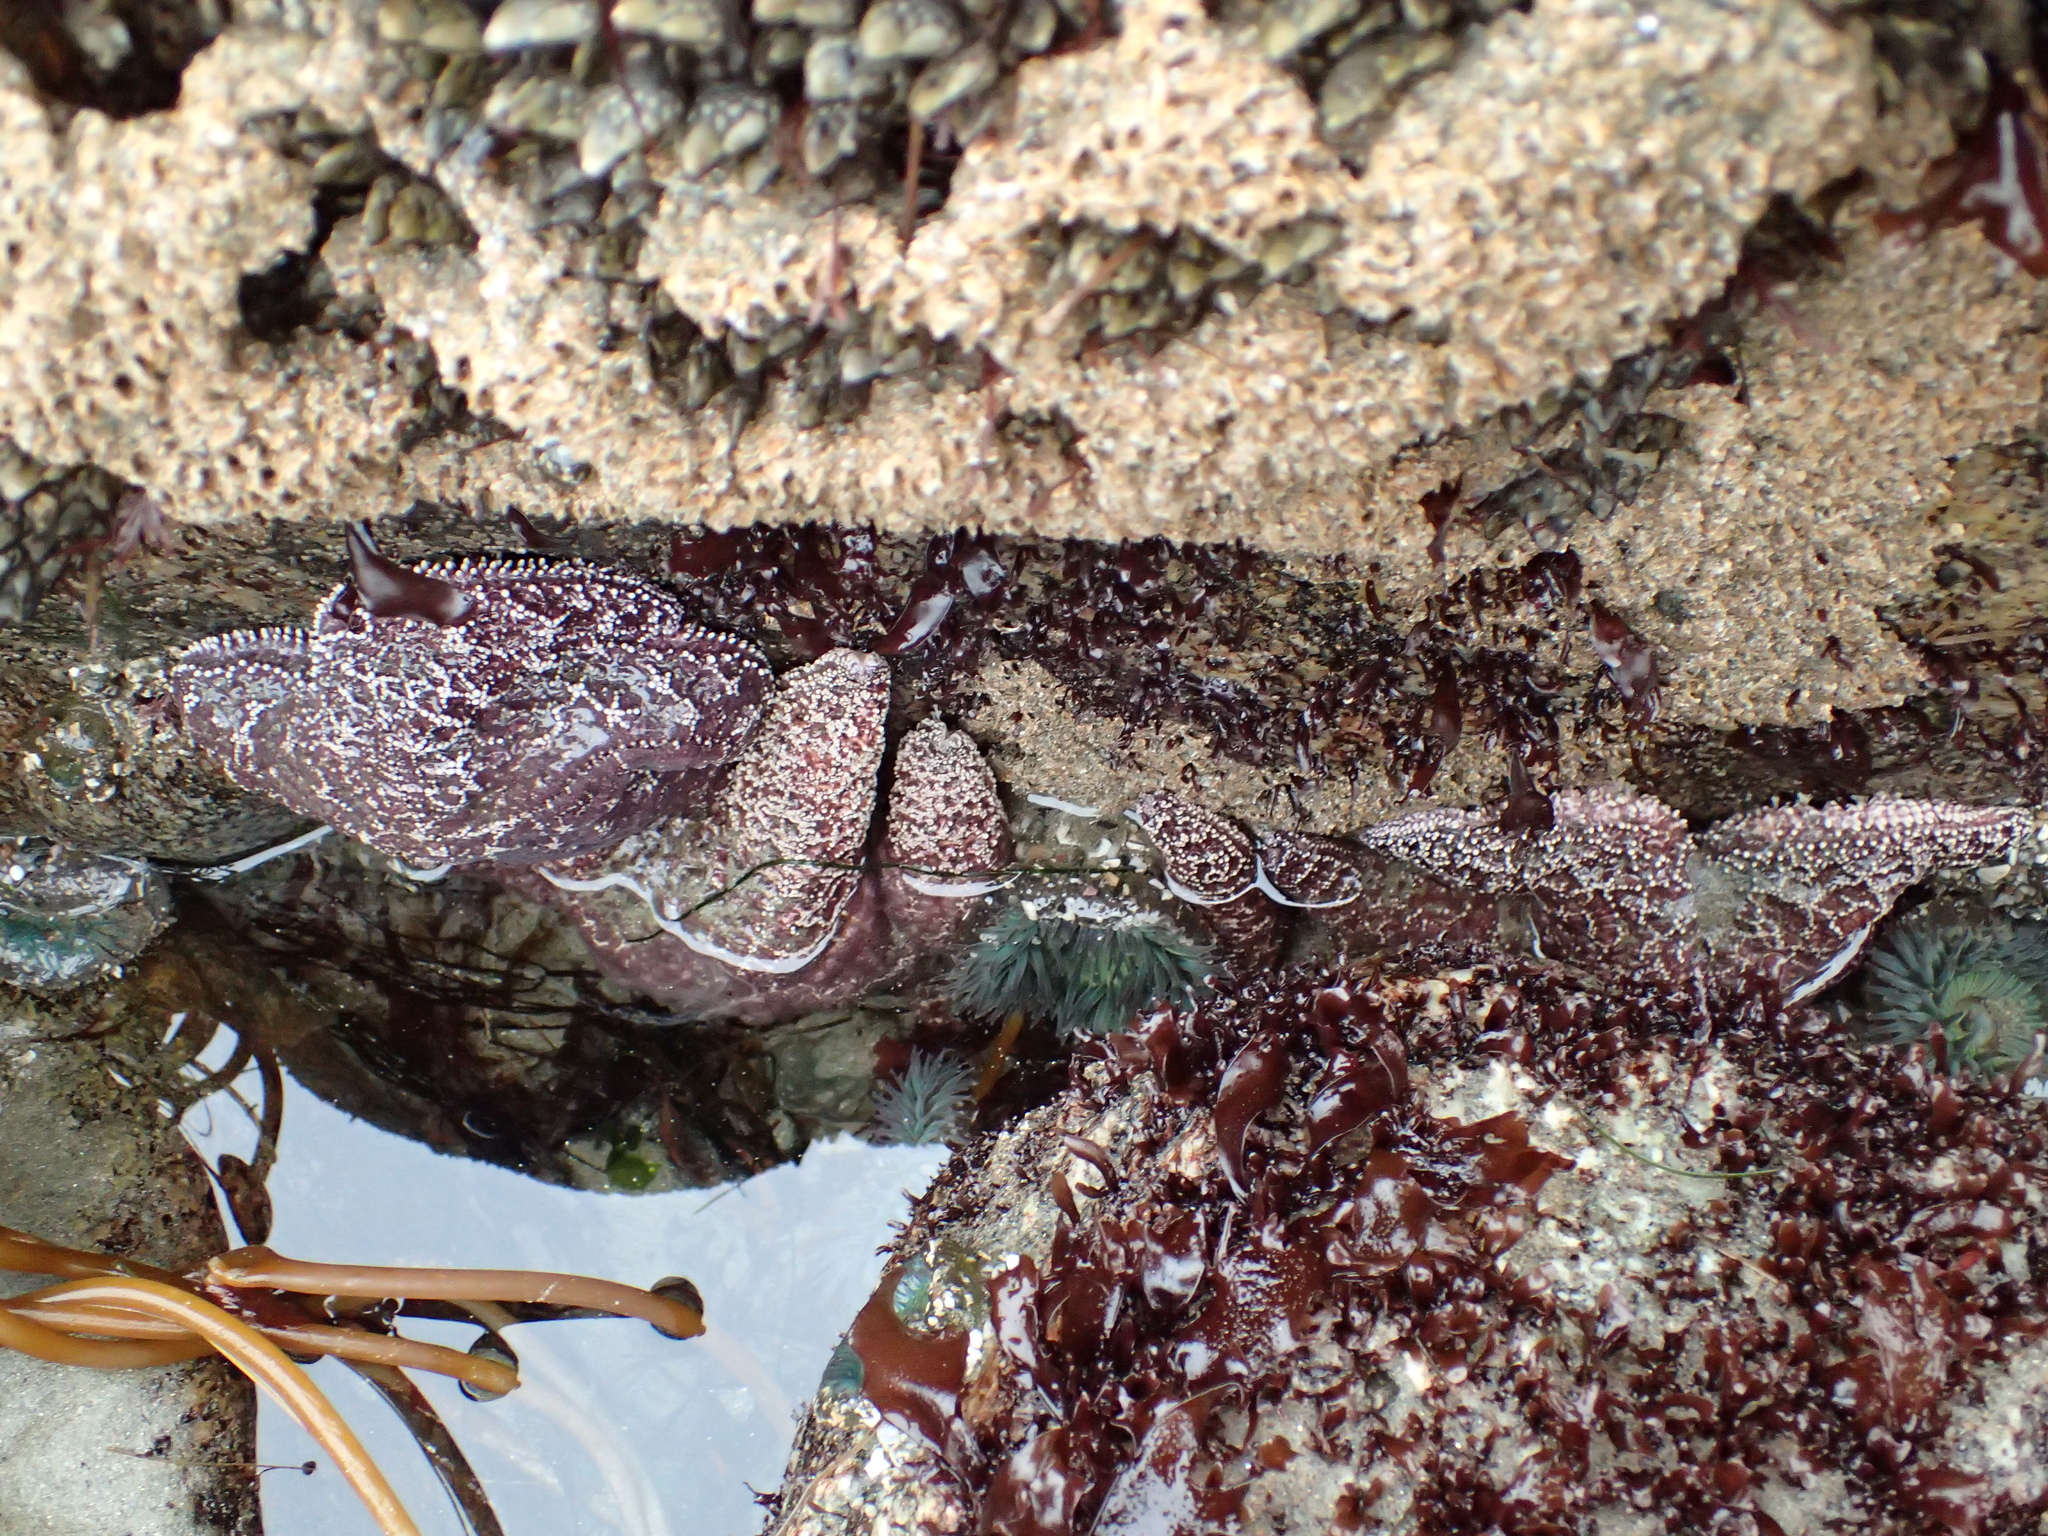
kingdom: Animalia
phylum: Echinodermata
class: Asteroidea
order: Forcipulatida
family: Asteriidae
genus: Pisaster
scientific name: Pisaster ochraceus
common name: Ochre stars
